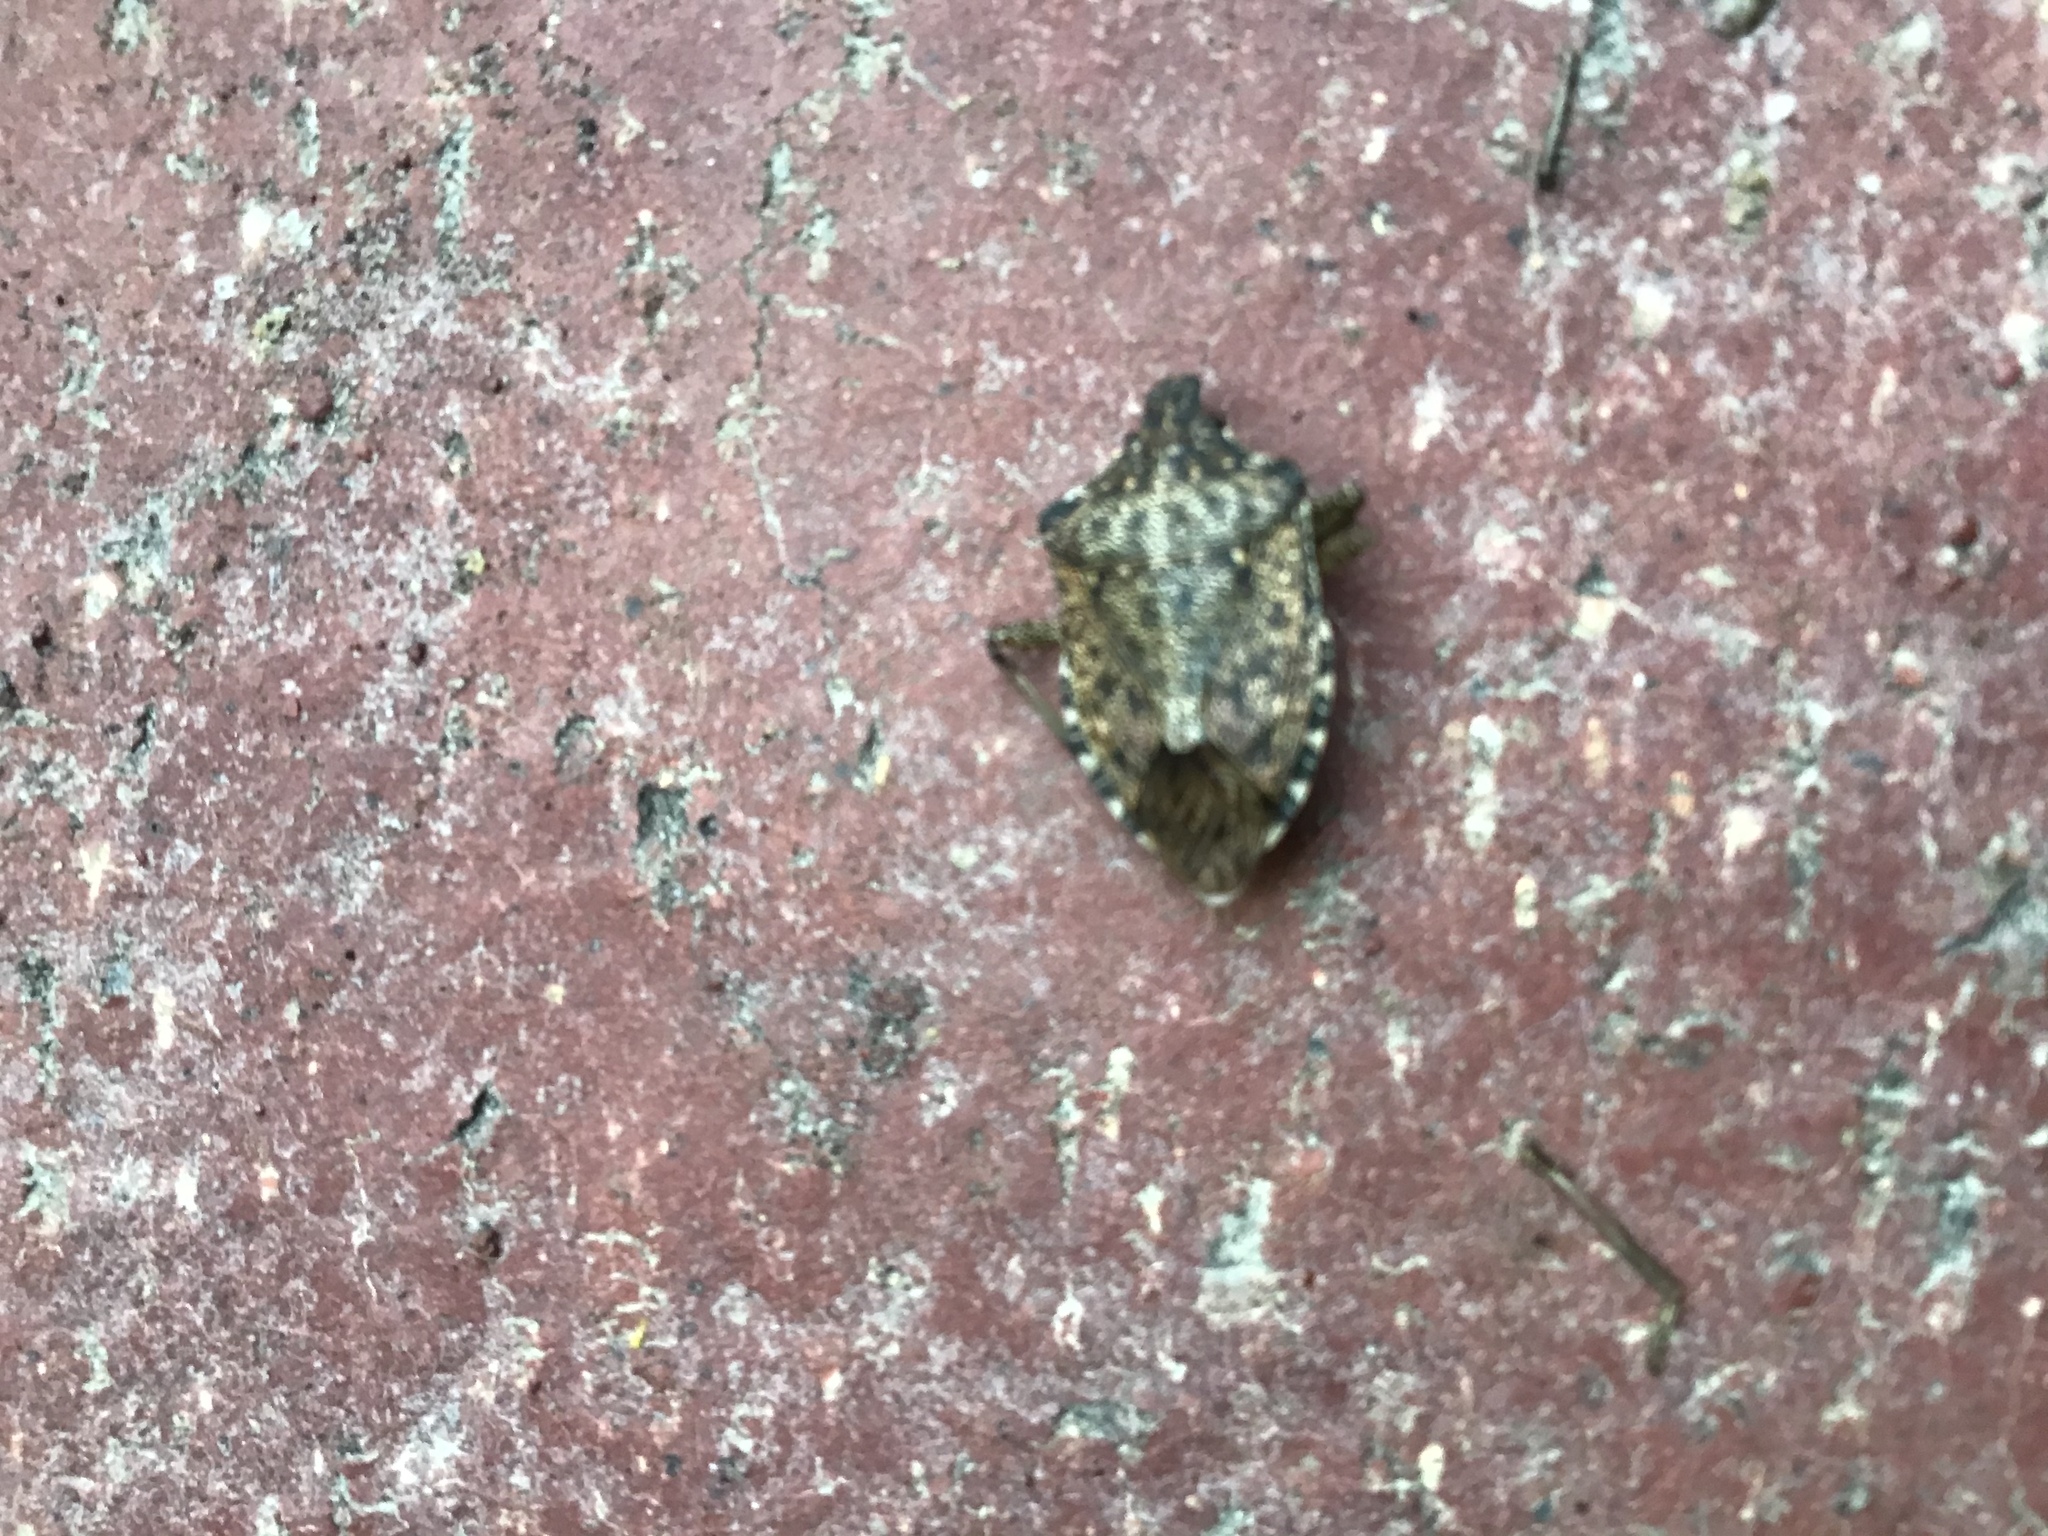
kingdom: Animalia
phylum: Arthropoda
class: Insecta
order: Hemiptera
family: Pentatomidae
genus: Halyomorpha
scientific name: Halyomorpha halys
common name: Brown marmorated stink bug
